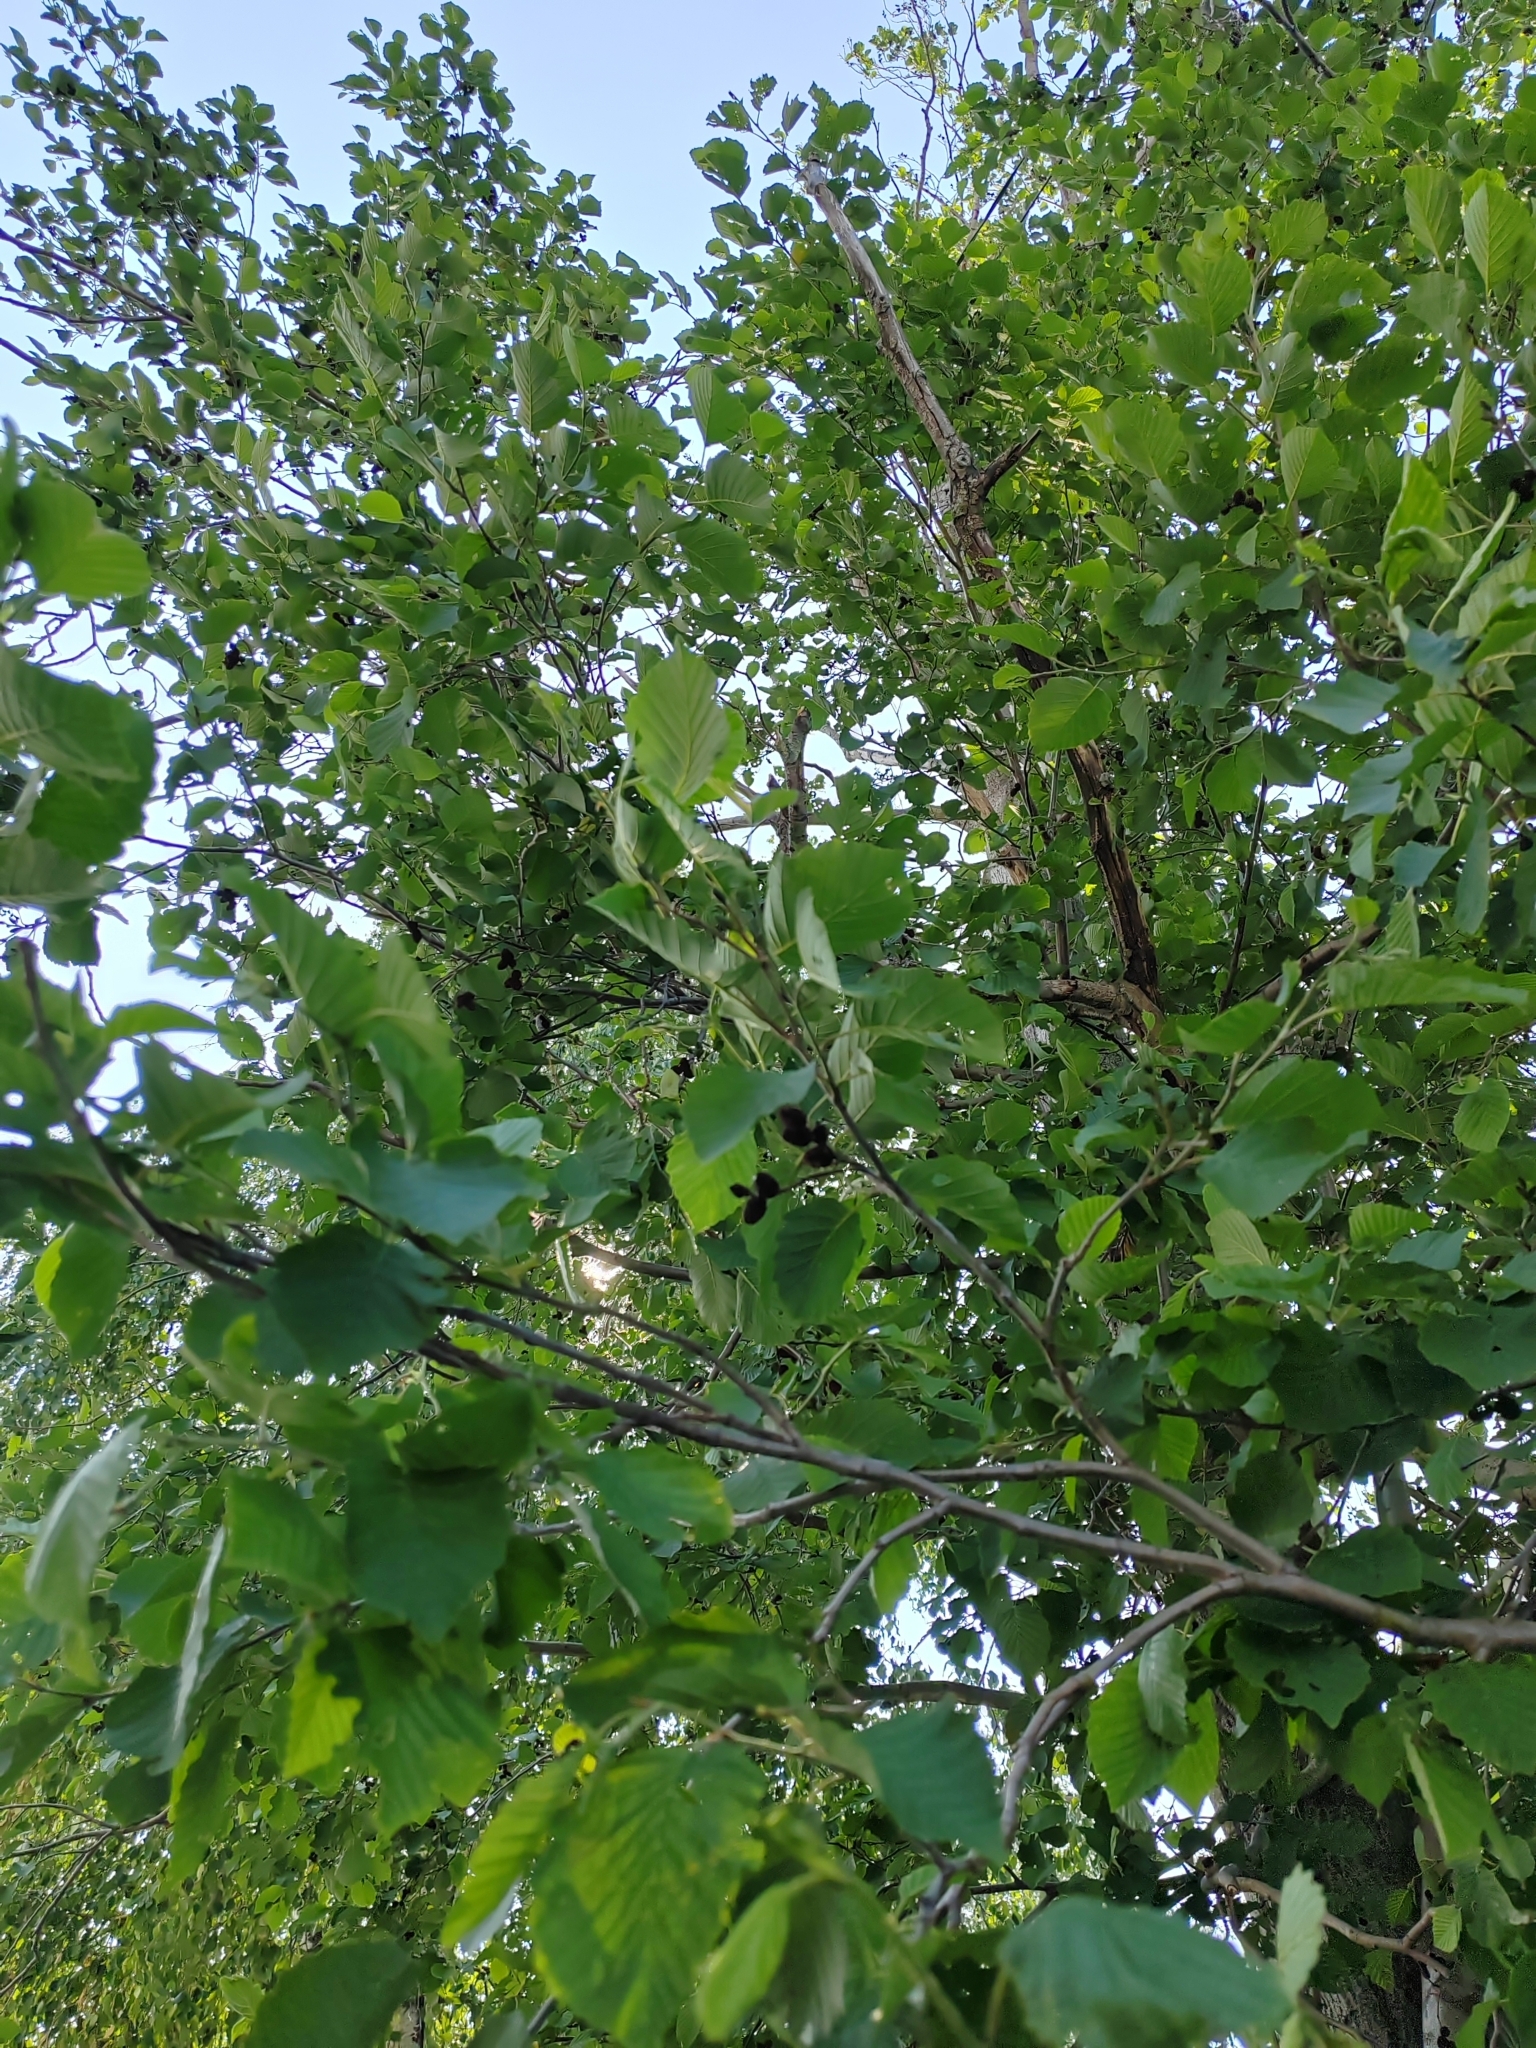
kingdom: Plantae
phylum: Tracheophyta
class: Magnoliopsida
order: Fagales
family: Betulaceae
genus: Alnus
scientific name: Alnus incana
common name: Grey alder
